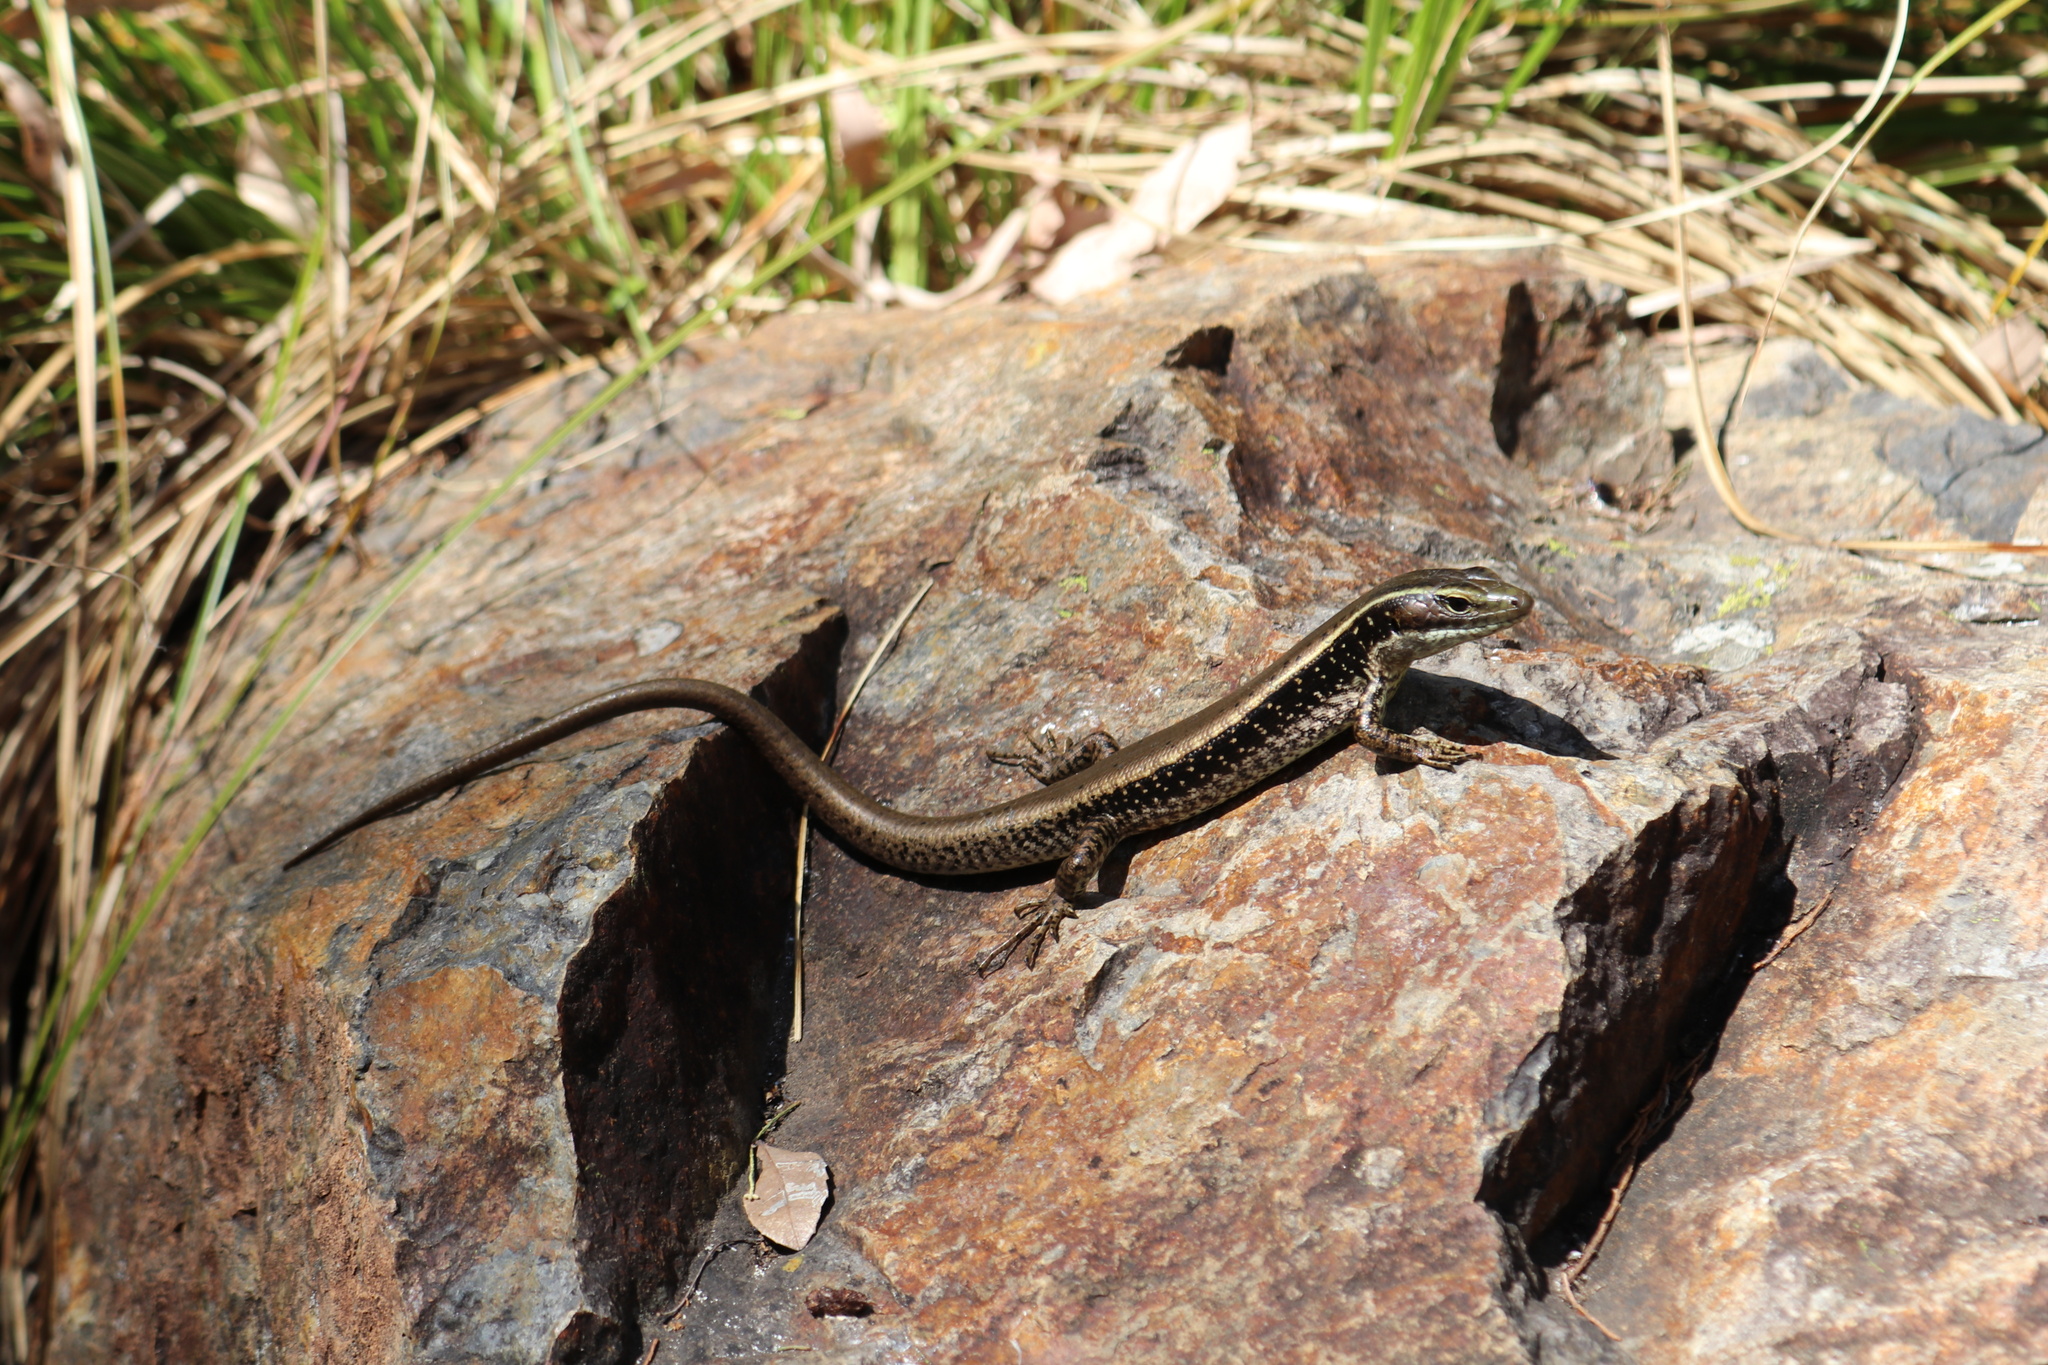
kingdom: Animalia
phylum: Chordata
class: Squamata
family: Scincidae
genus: Eulamprus
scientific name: Eulamprus quoyii
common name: Eastern water skink
